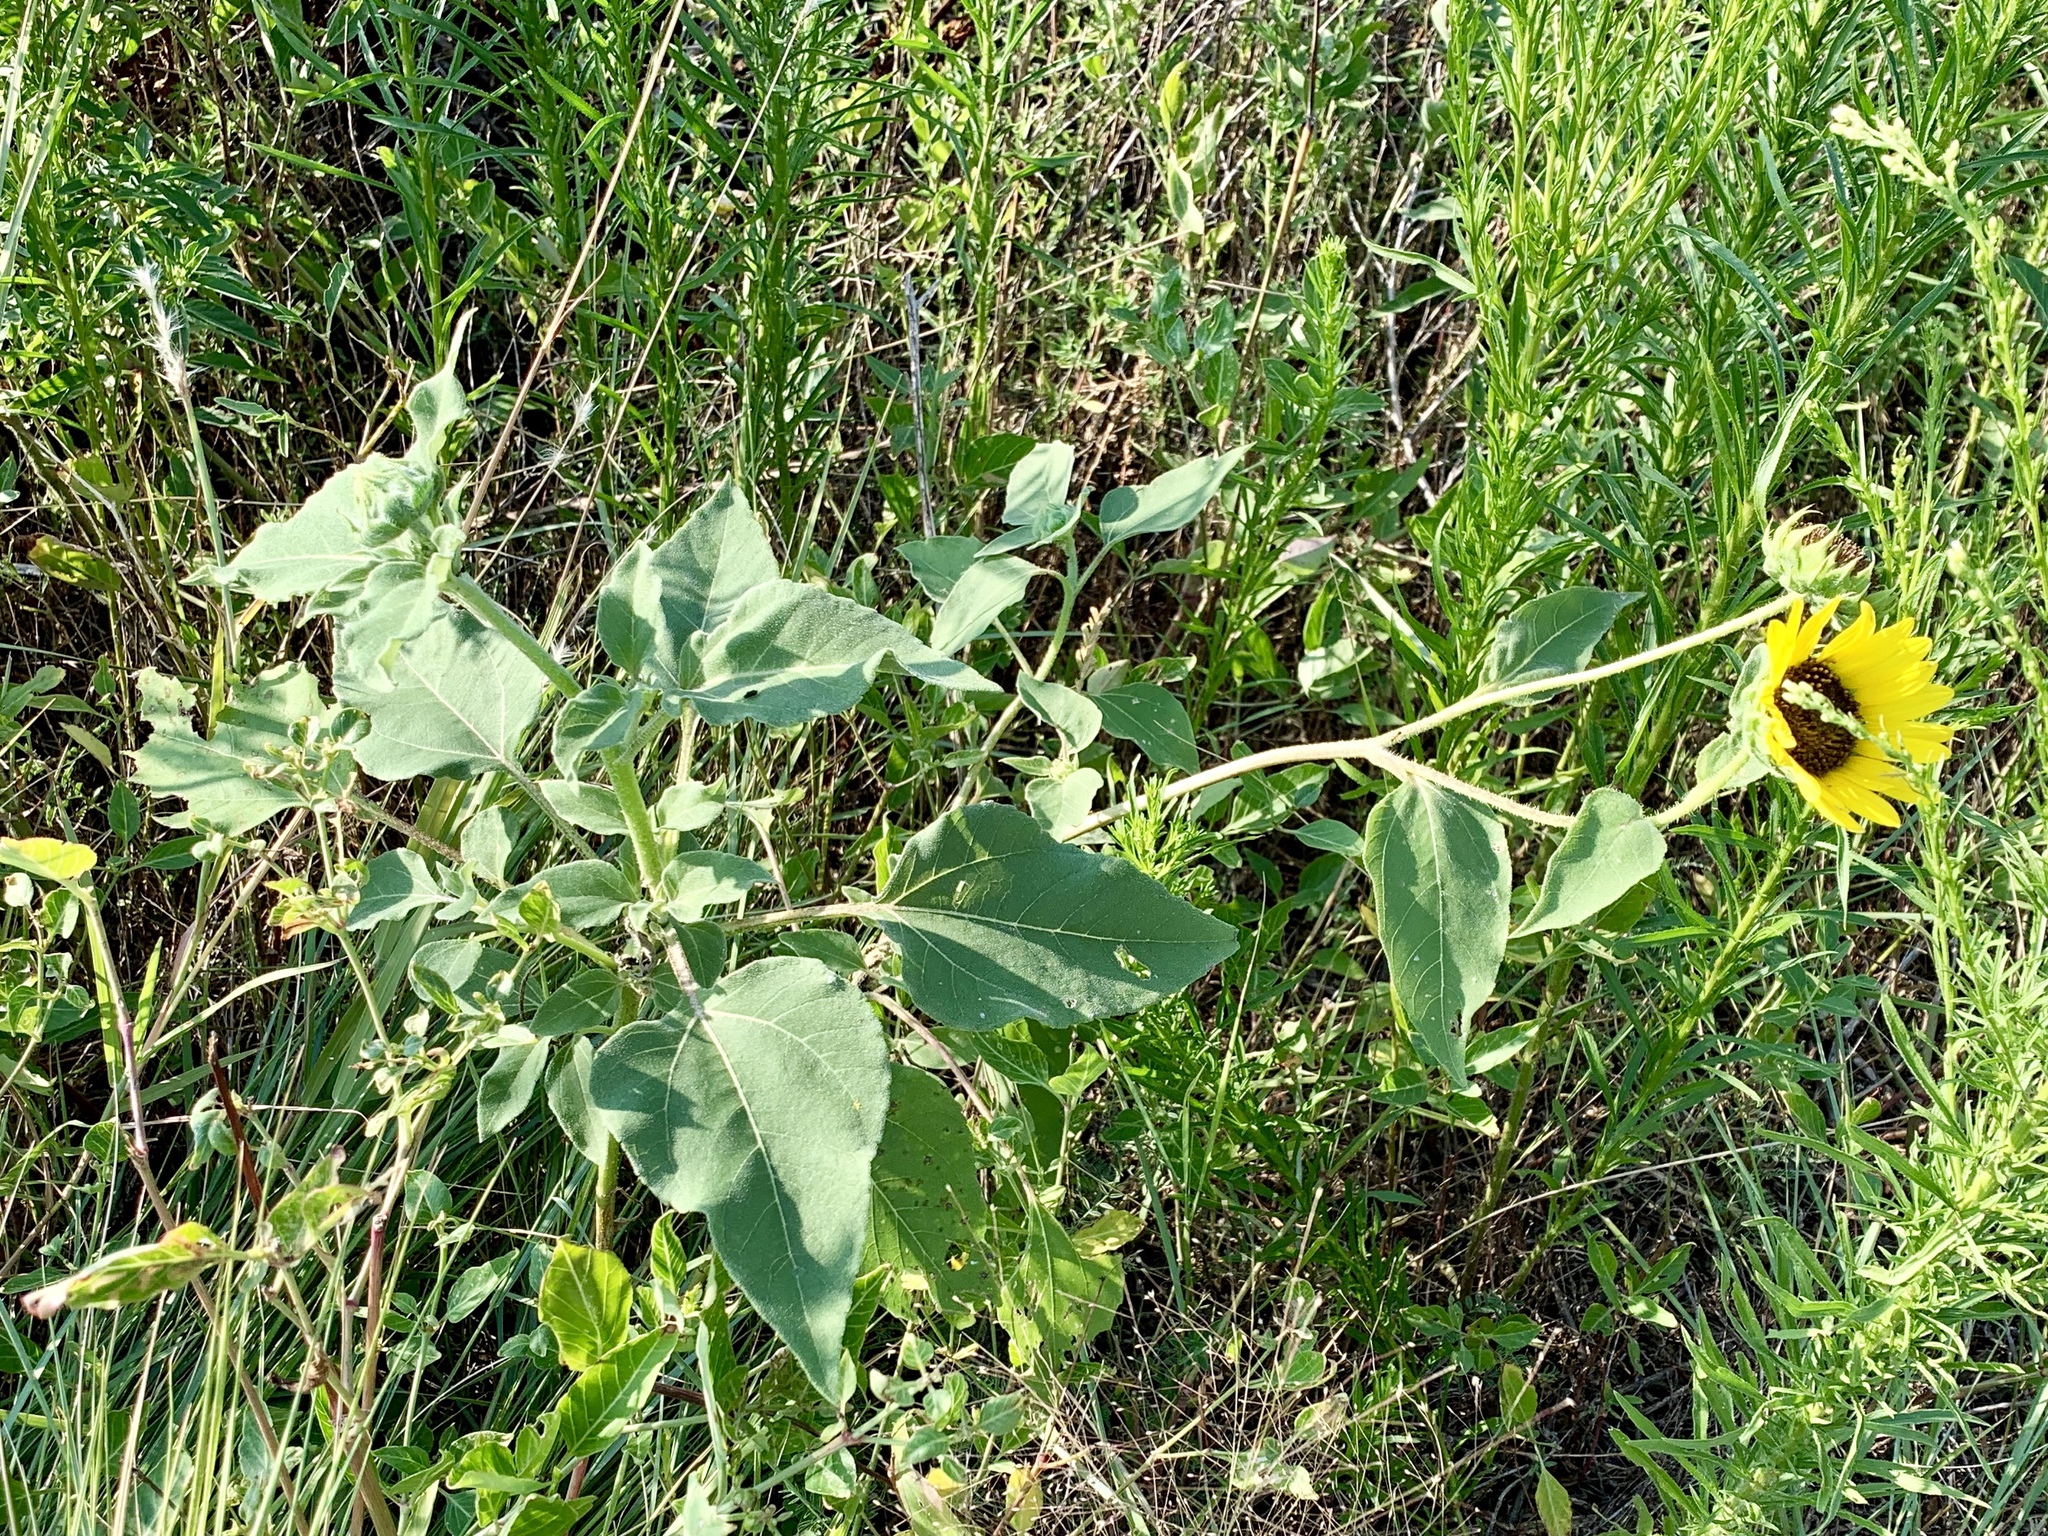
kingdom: Plantae
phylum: Tracheophyta
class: Magnoliopsida
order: Asterales
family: Asteraceae
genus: Helianthus
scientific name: Helianthus annuus
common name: Sunflower
